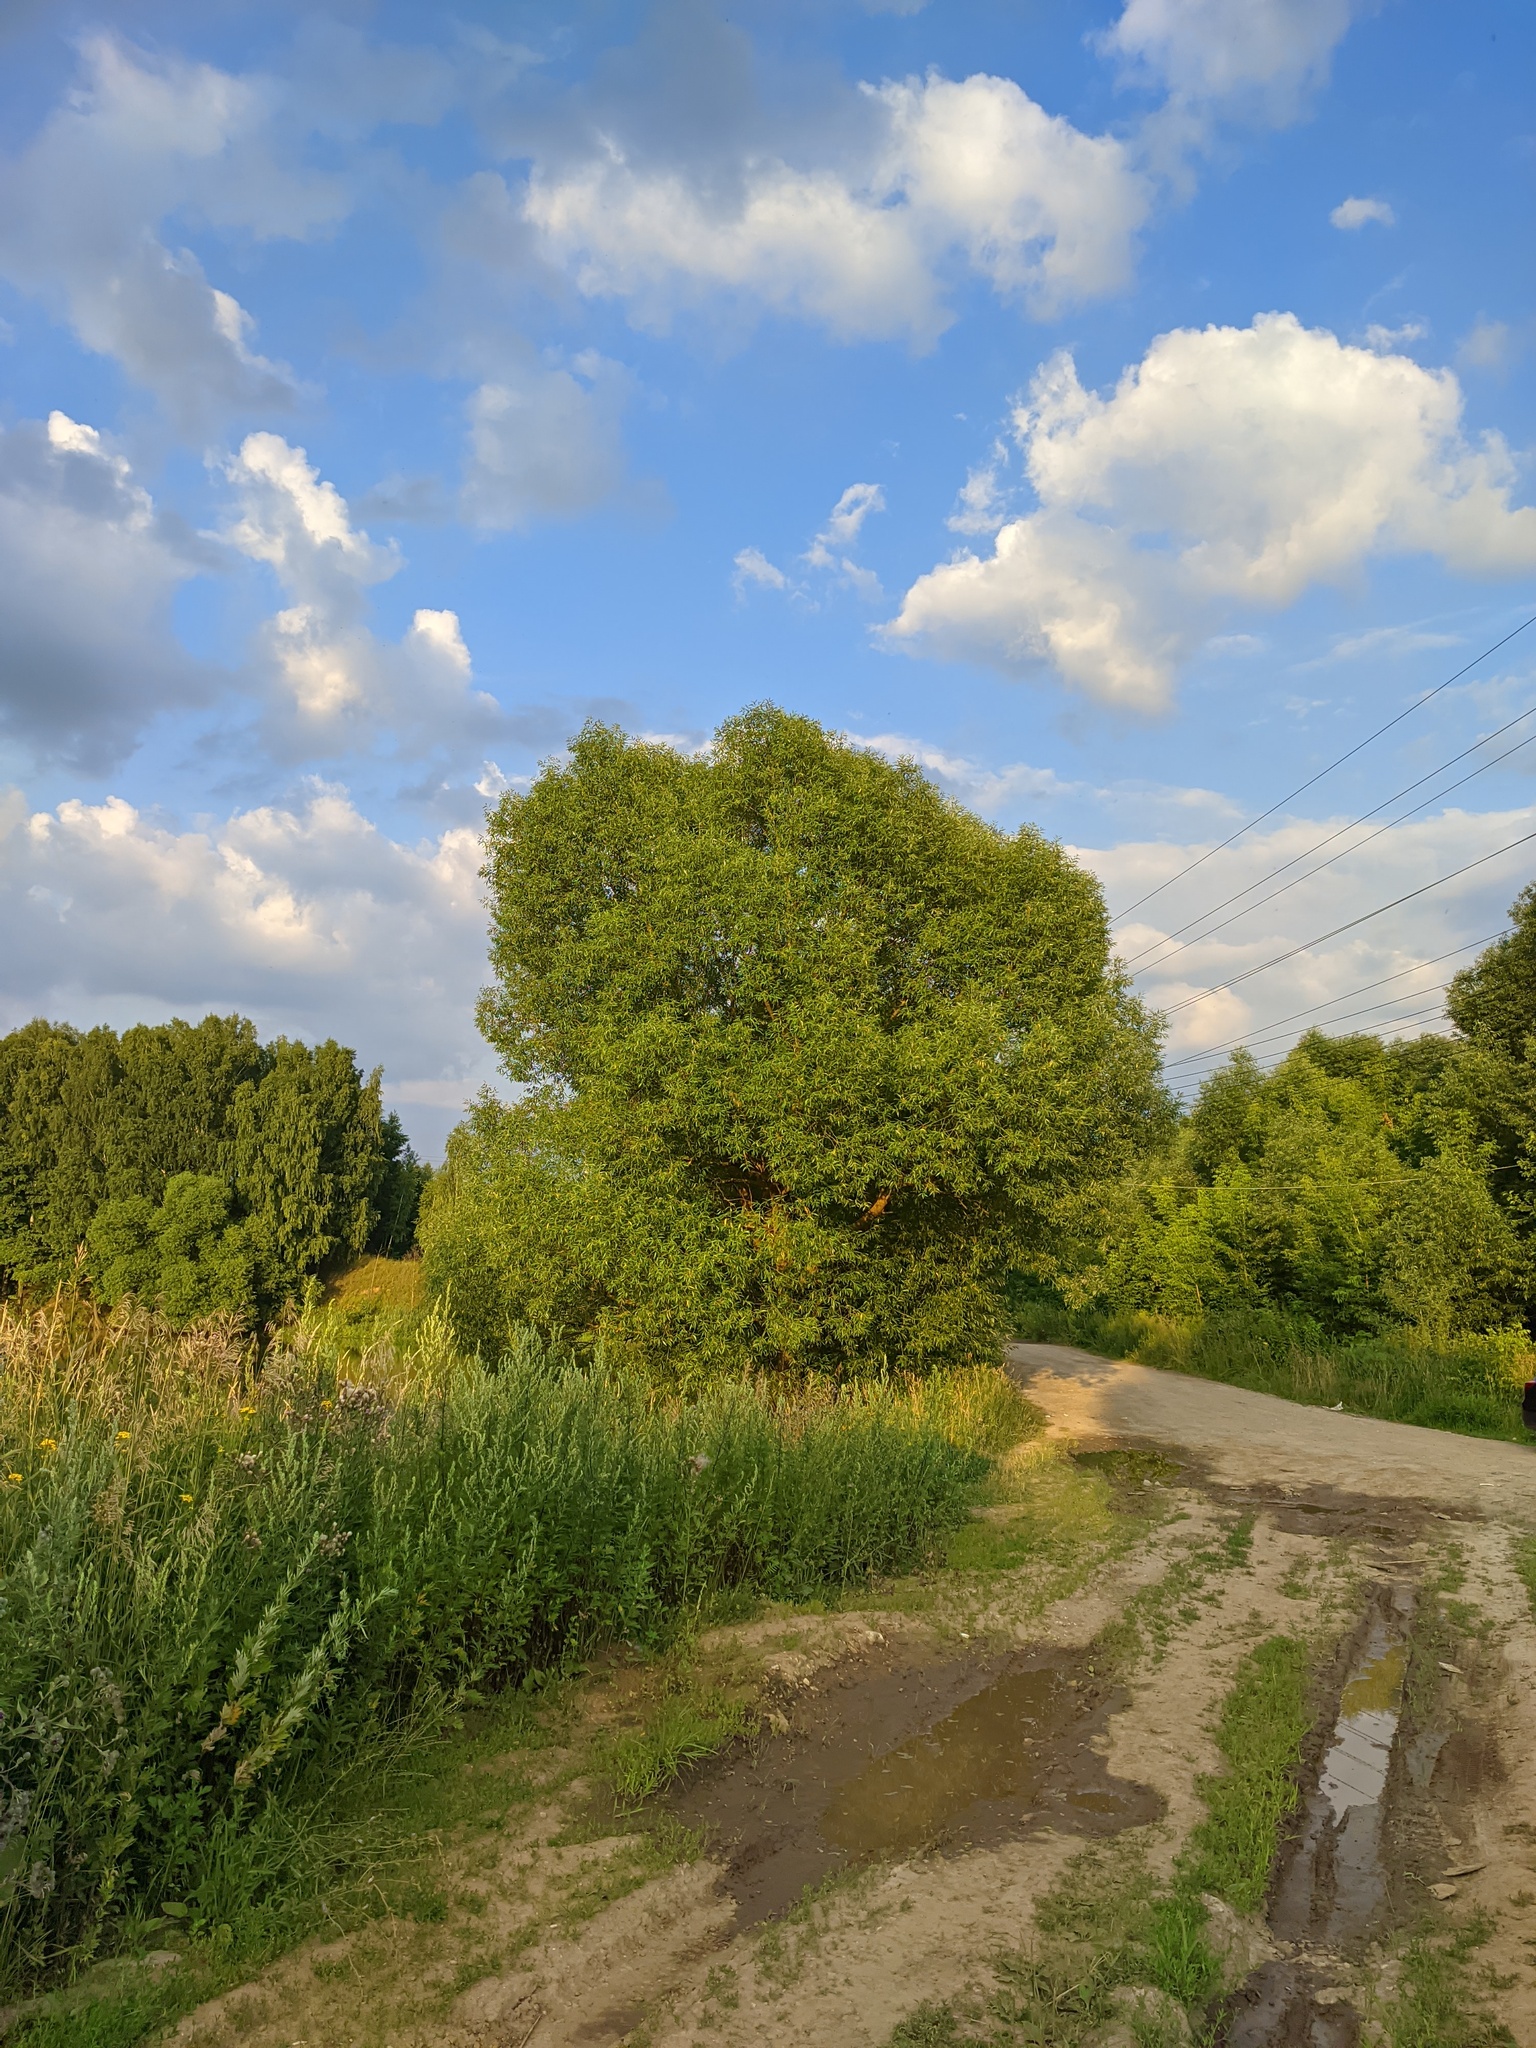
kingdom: Plantae
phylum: Tracheophyta
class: Magnoliopsida
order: Malpighiales
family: Salicaceae
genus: Salix
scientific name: Salix fragilis
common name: Crack willow
